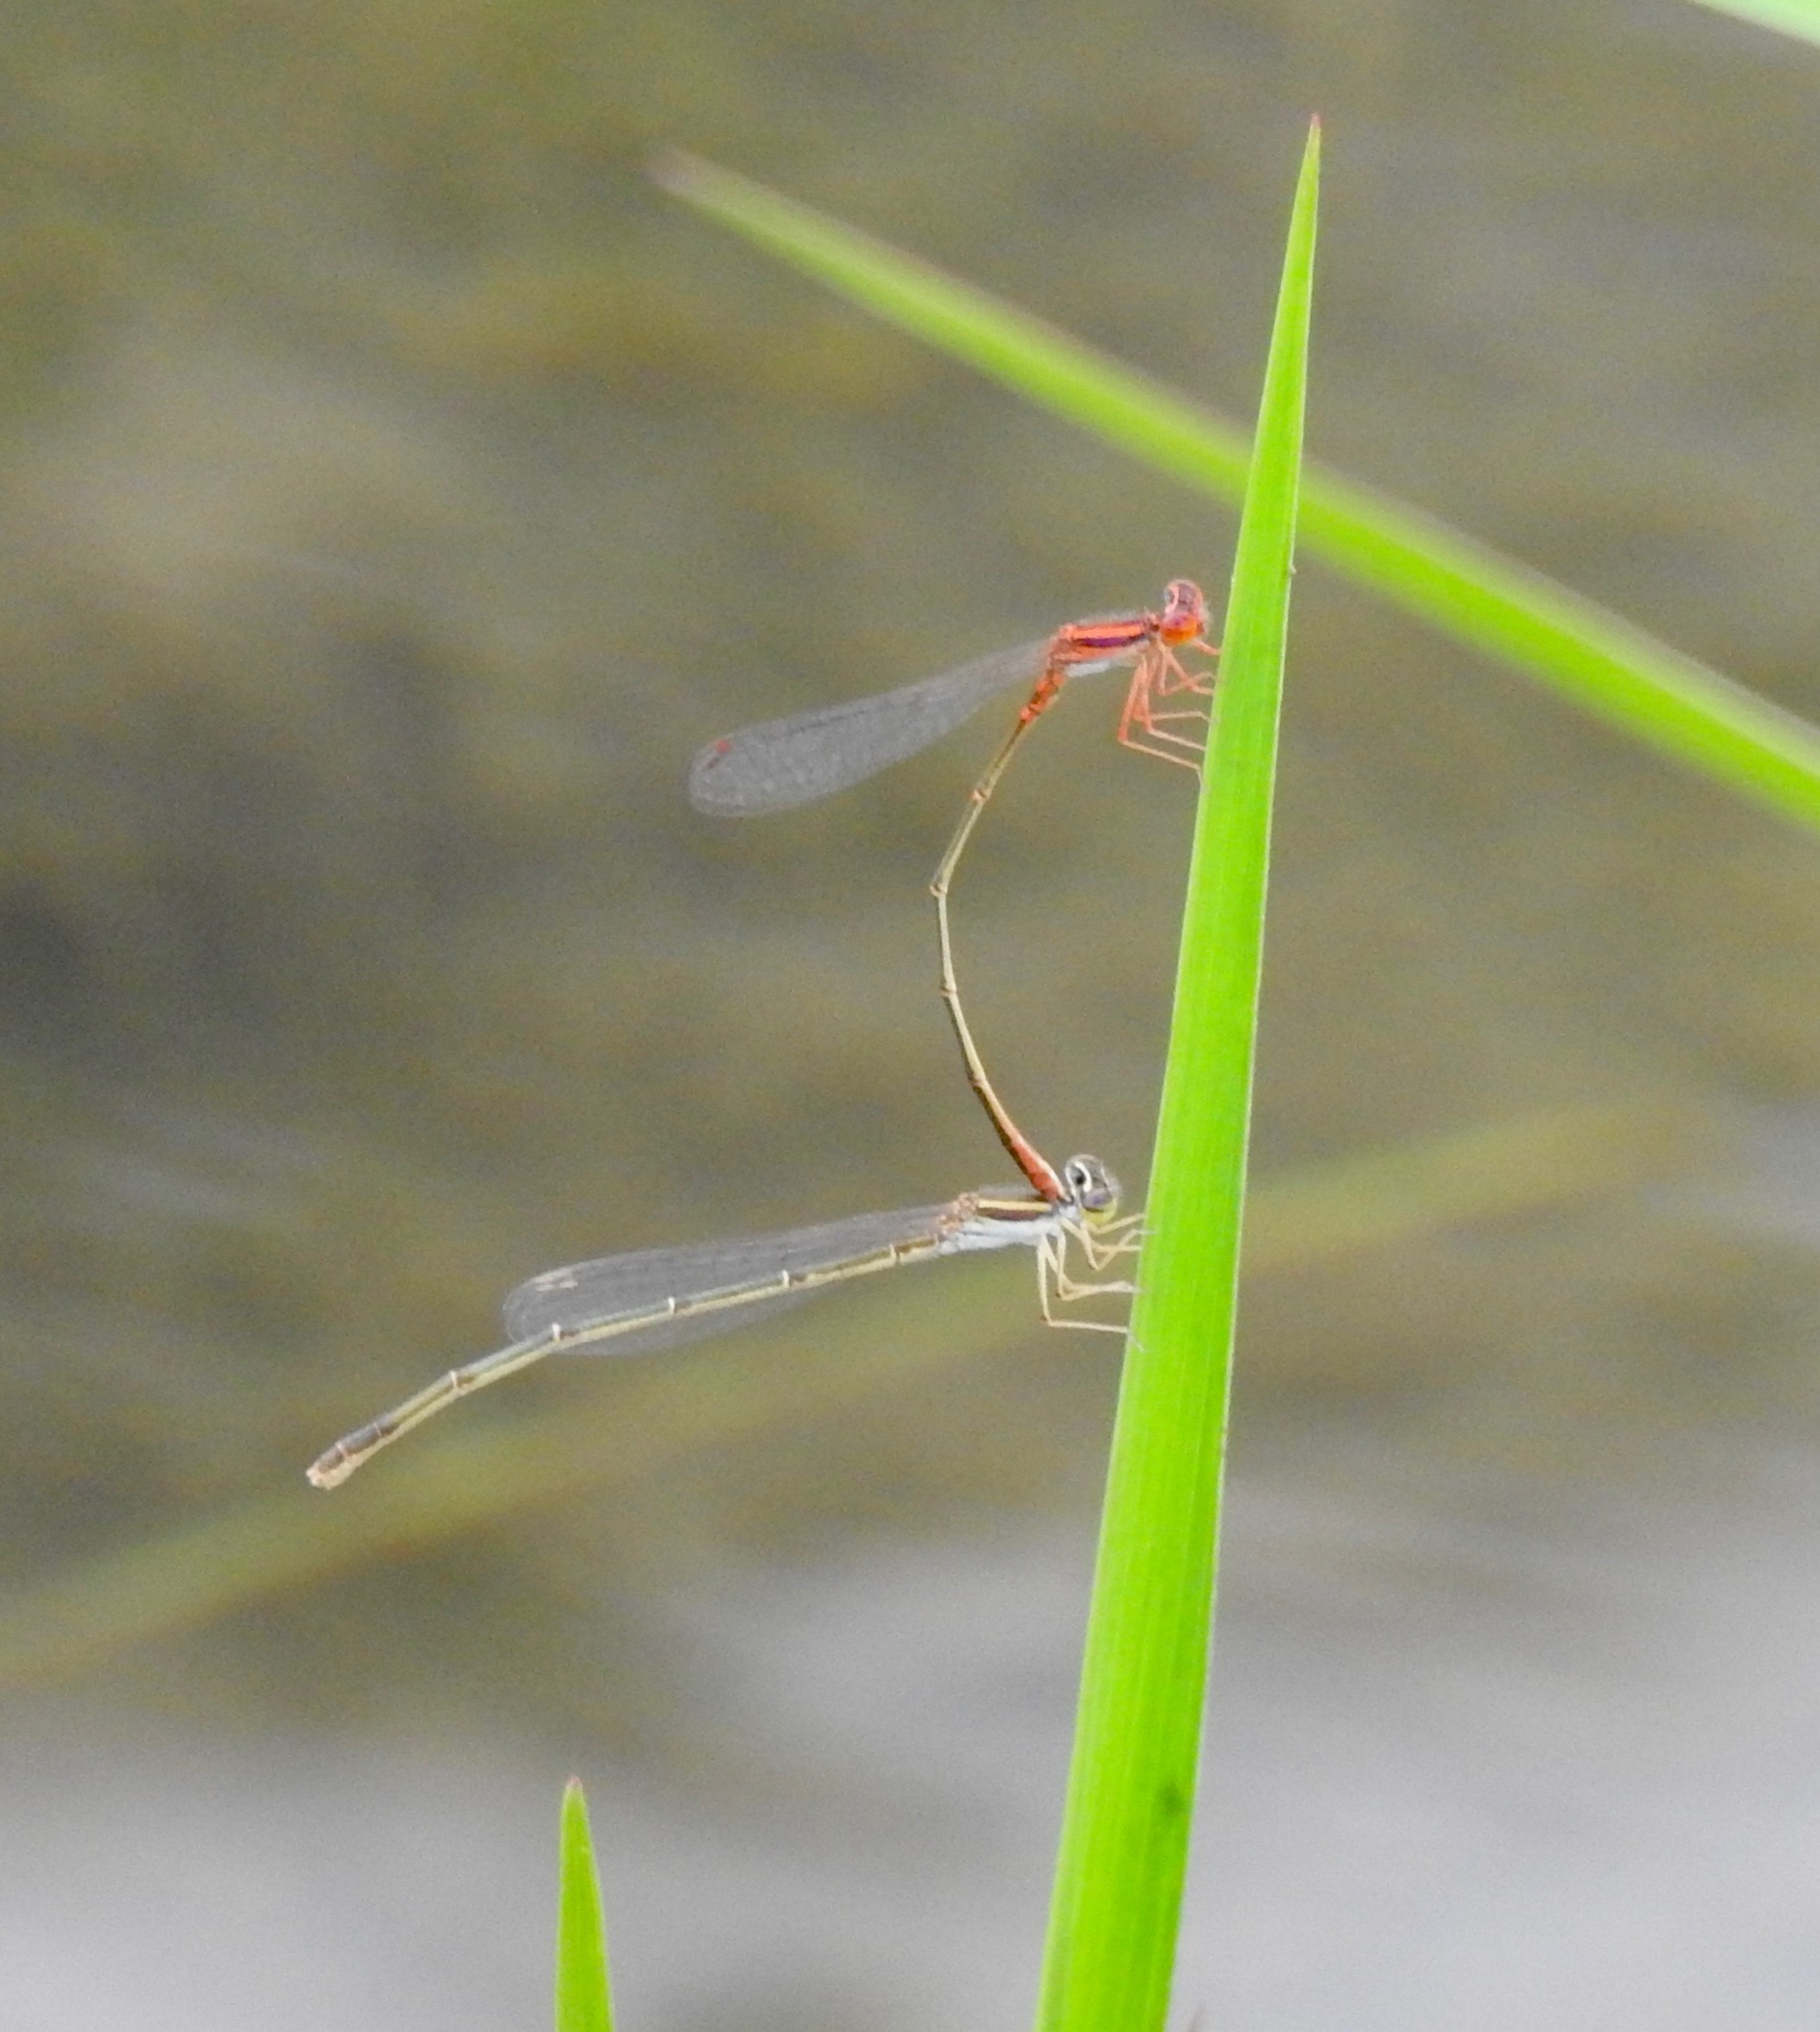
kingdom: Animalia
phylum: Arthropoda
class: Insecta
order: Odonata
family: Coenagrionidae
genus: Enallagma
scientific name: Enallagma concisum
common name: Cherry bluet
